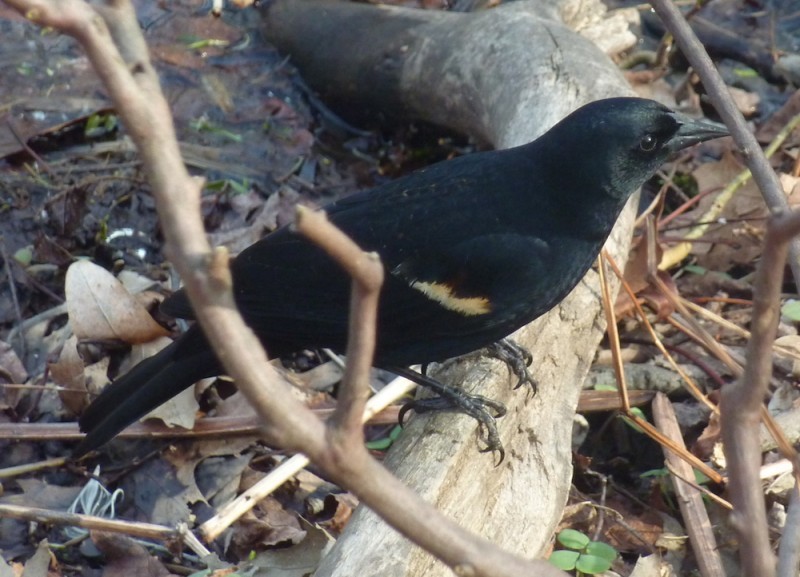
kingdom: Animalia
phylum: Chordata
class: Aves
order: Passeriformes
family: Icteridae
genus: Agelaius
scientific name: Agelaius phoeniceus
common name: Red-winged blackbird
